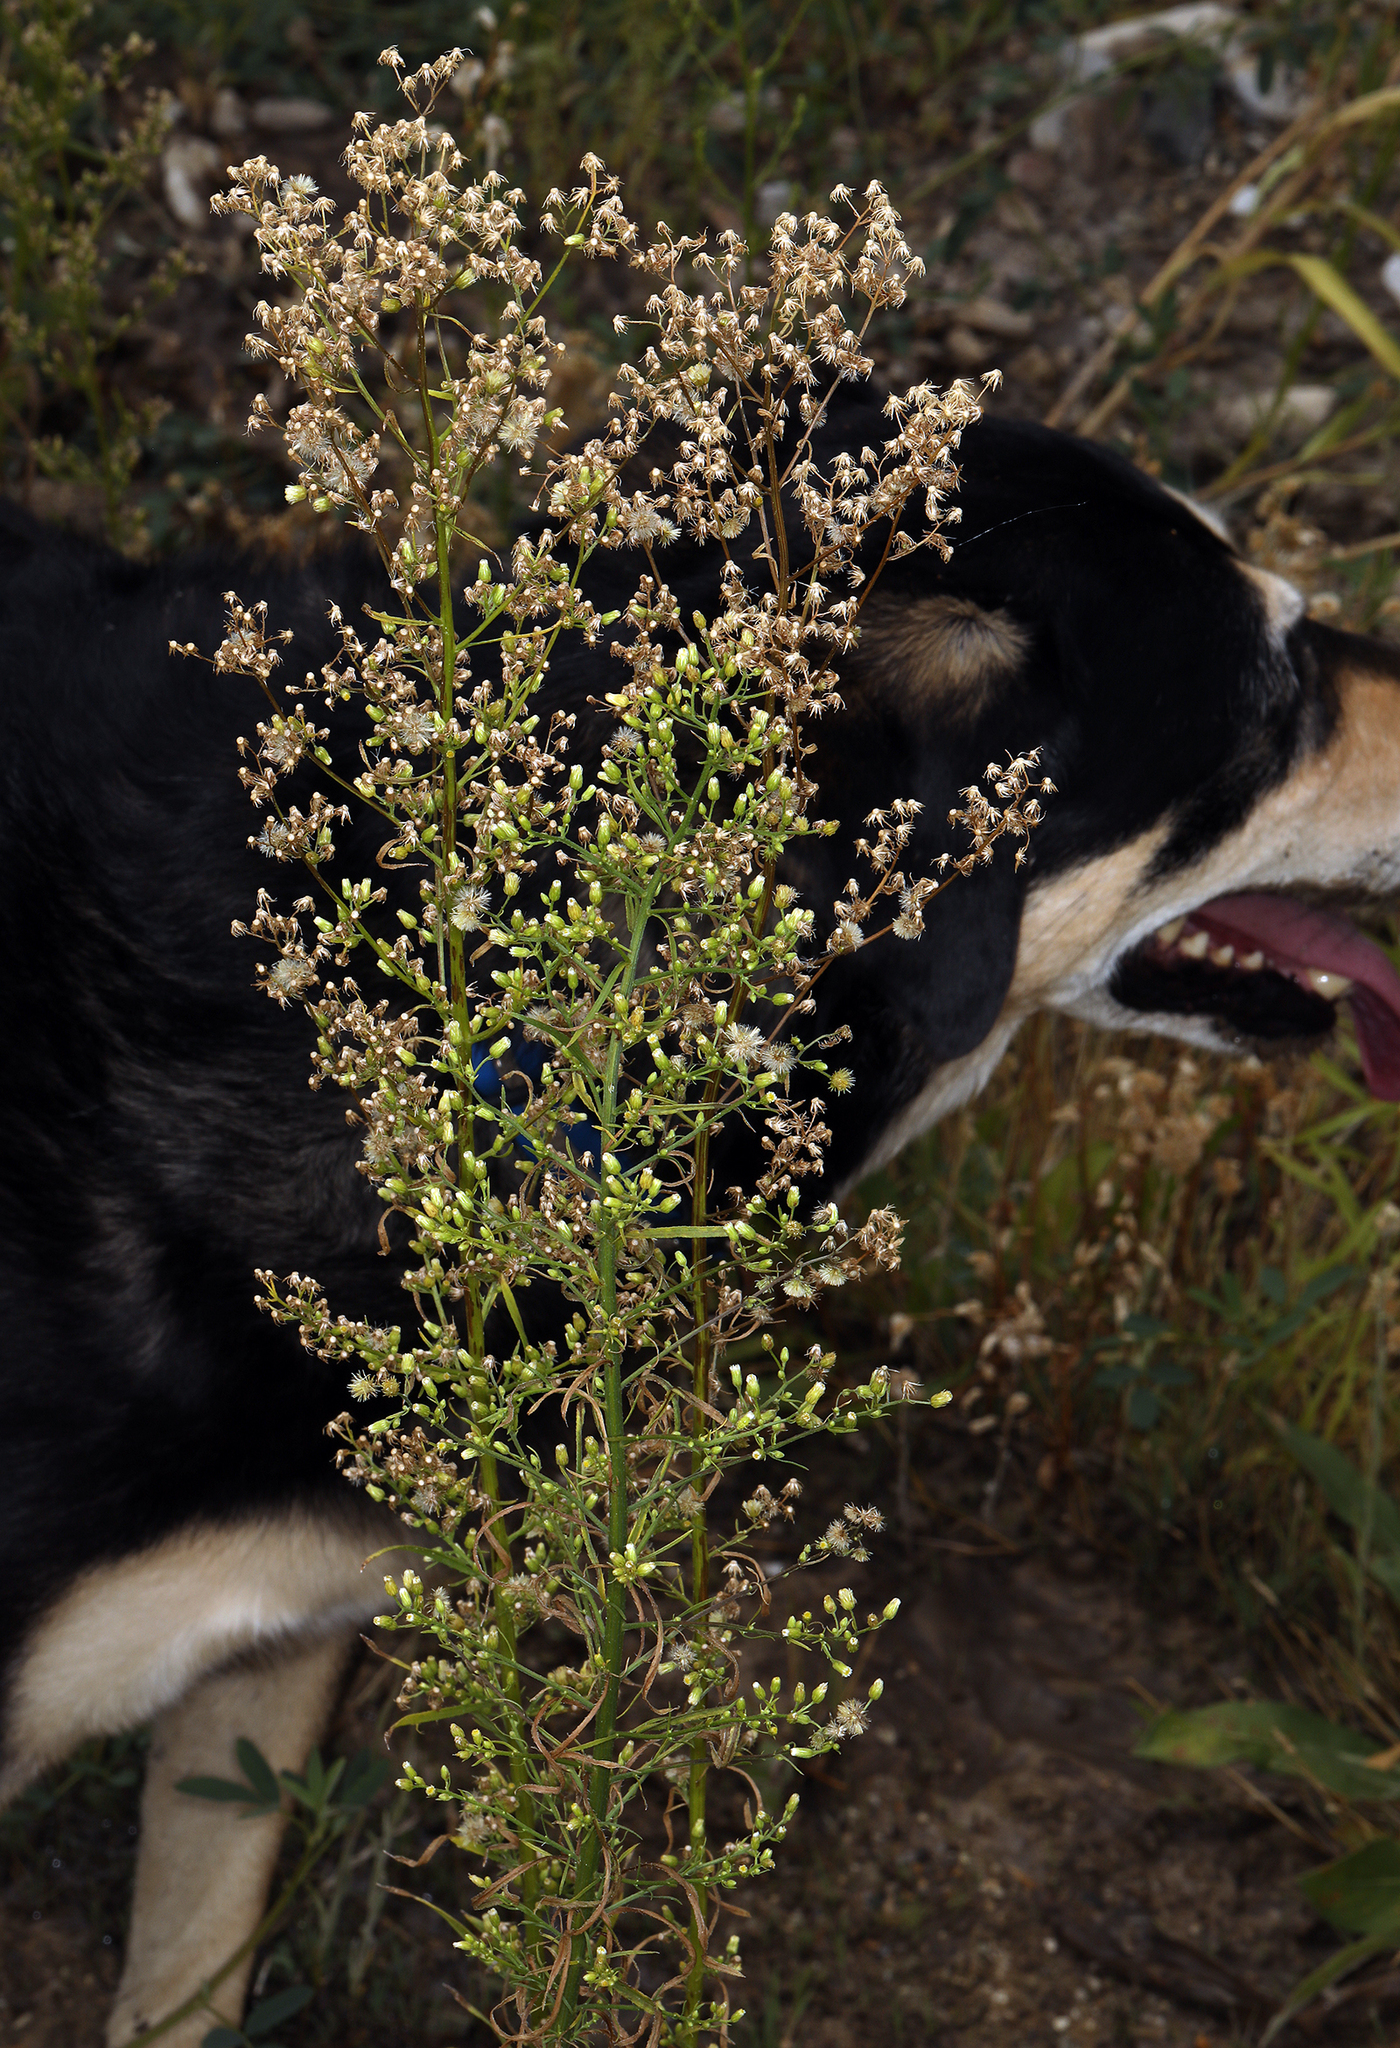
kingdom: Plantae
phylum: Tracheophyta
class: Magnoliopsida
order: Asterales
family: Asteraceae
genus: Erigeron
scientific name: Erigeron canadensis
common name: Canadian fleabane
